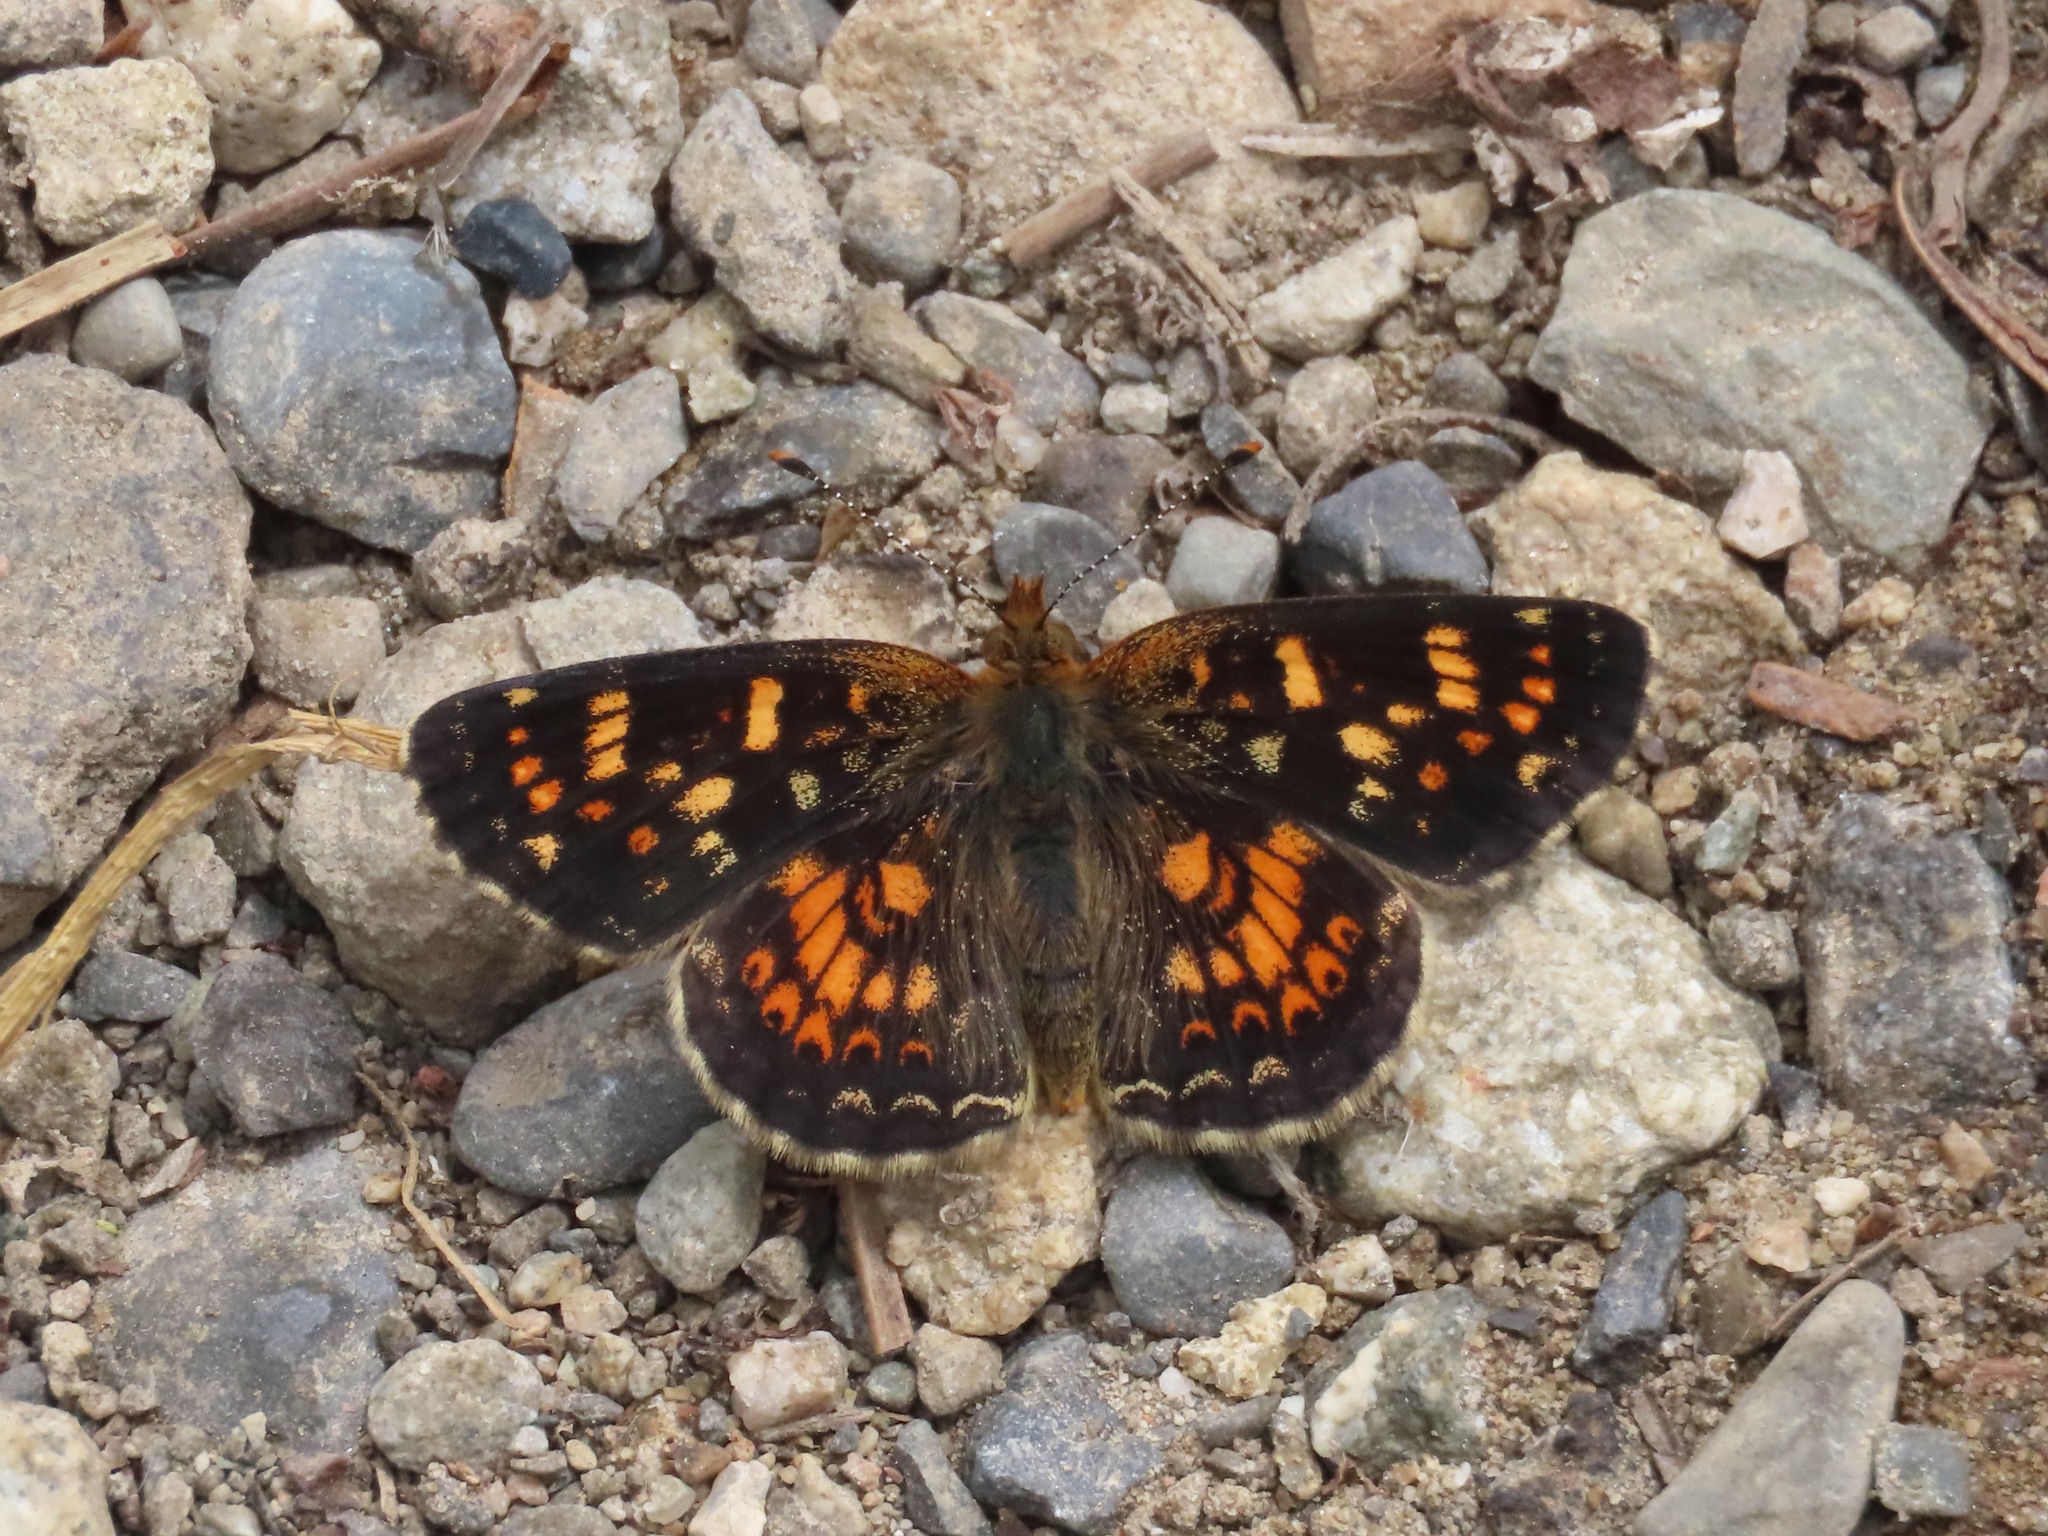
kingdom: Animalia
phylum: Arthropoda
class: Insecta
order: Lepidoptera
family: Nymphalidae
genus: Phyciodes
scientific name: Phyciodes tharos
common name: Pearl crescent
